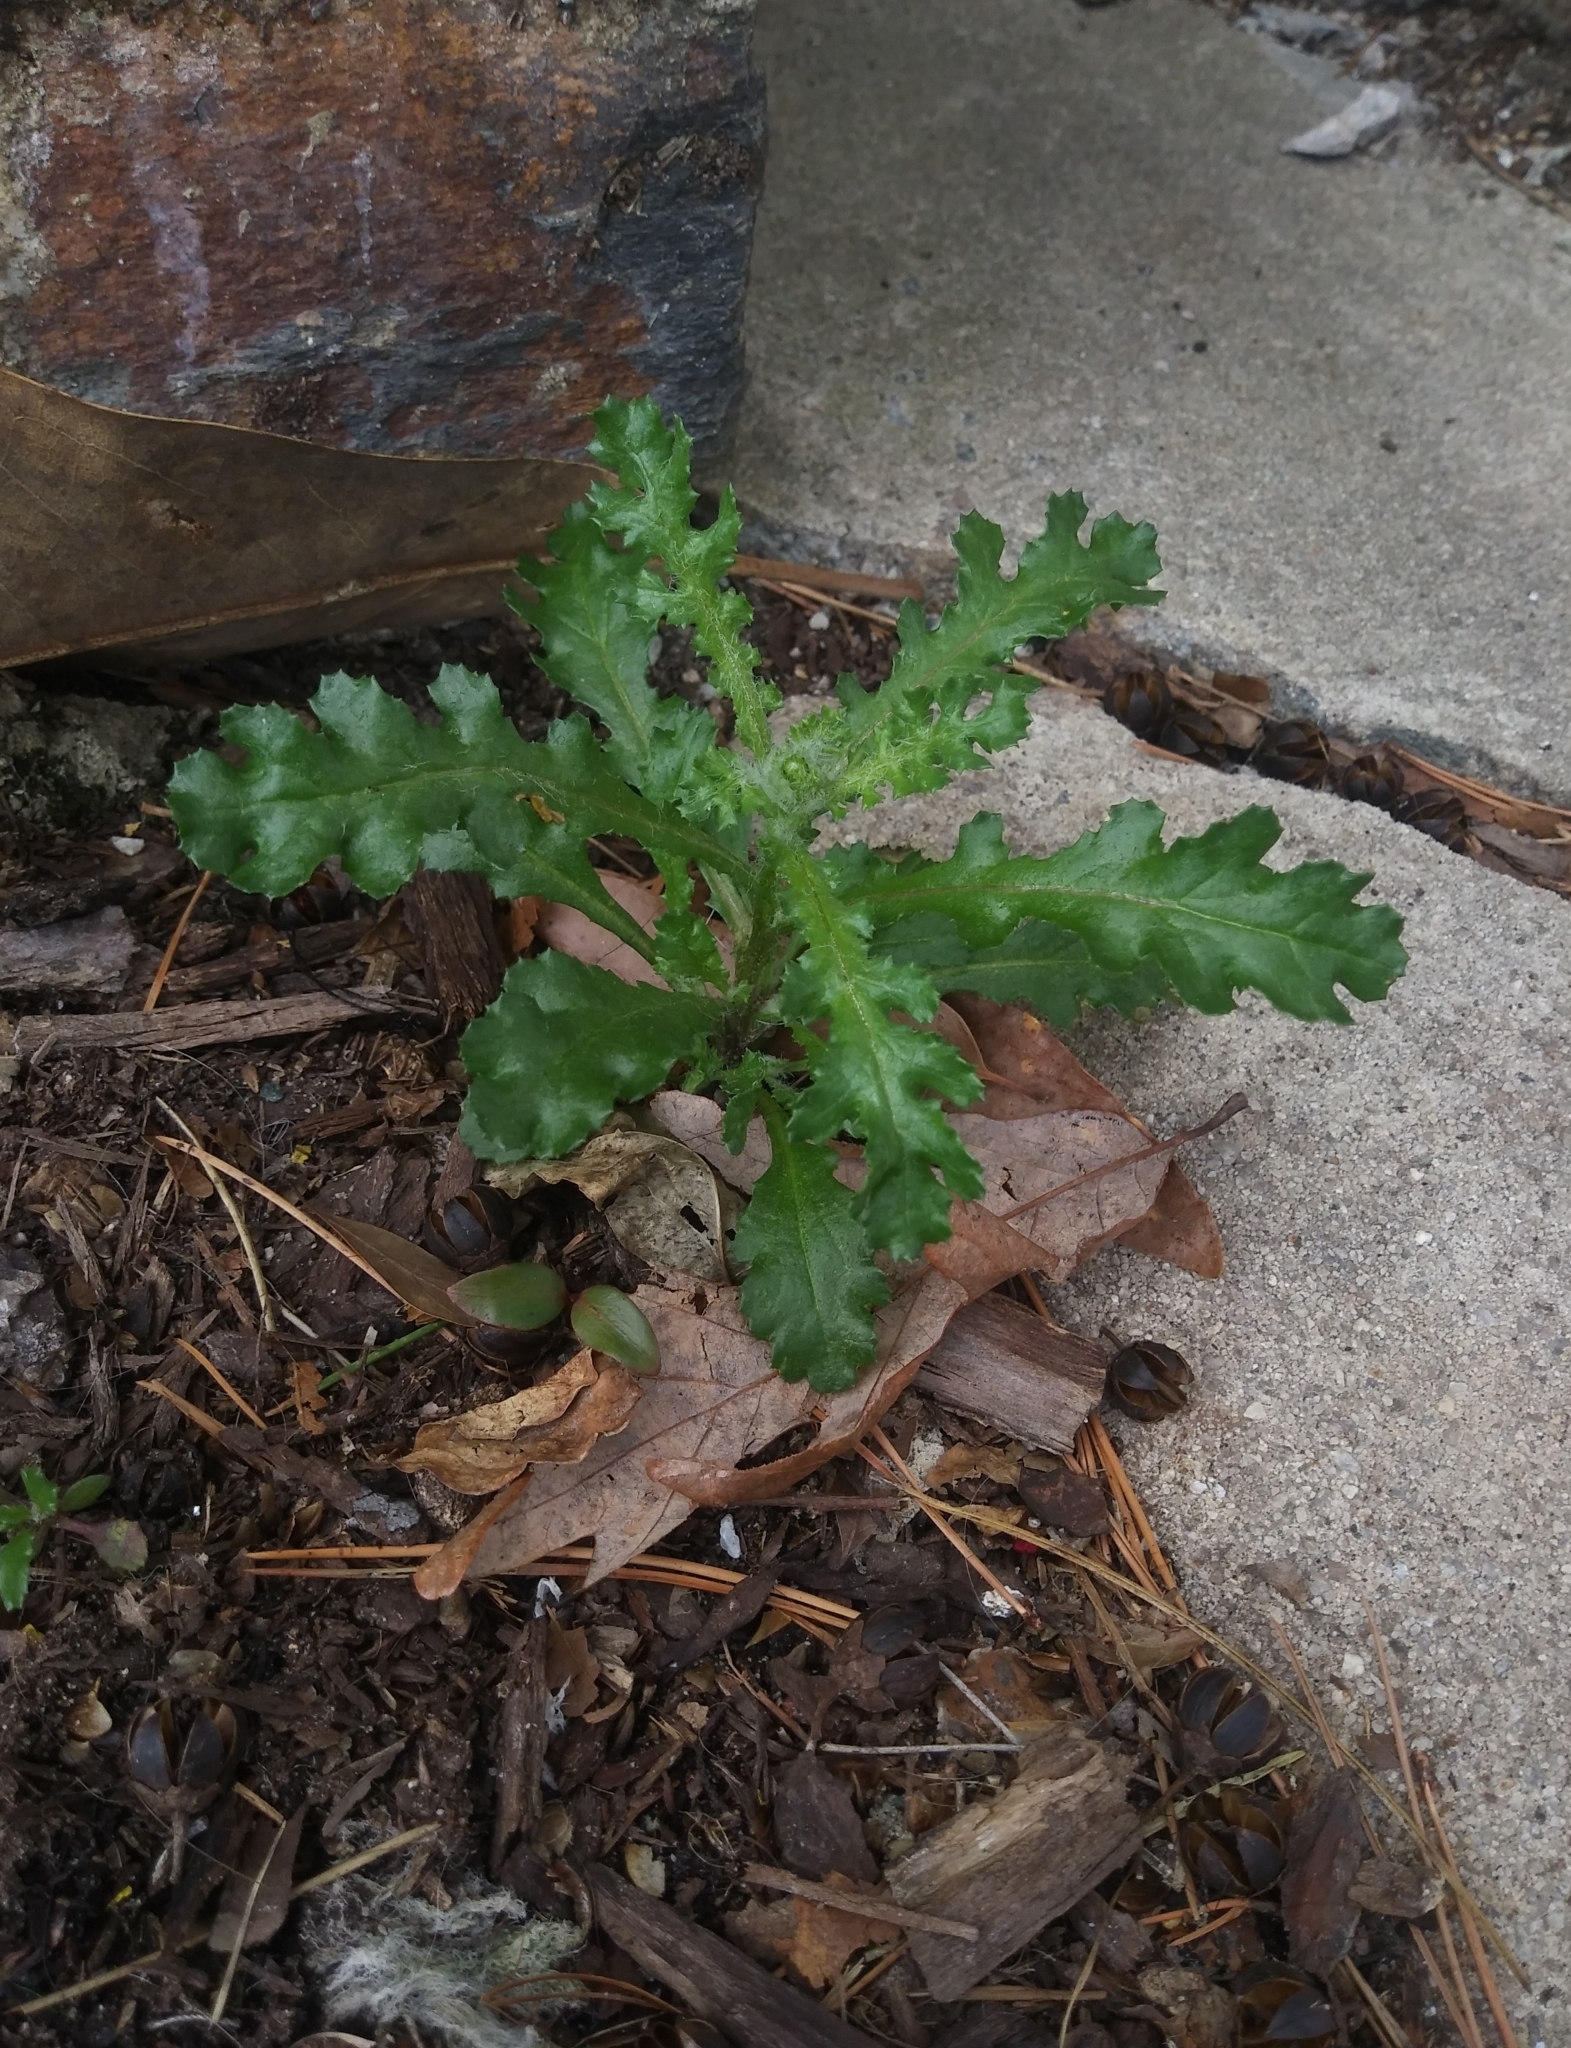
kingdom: Plantae
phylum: Tracheophyta
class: Magnoliopsida
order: Asterales
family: Asteraceae
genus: Senecio
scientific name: Senecio vulgaris
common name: Old-man-in-the-spring
